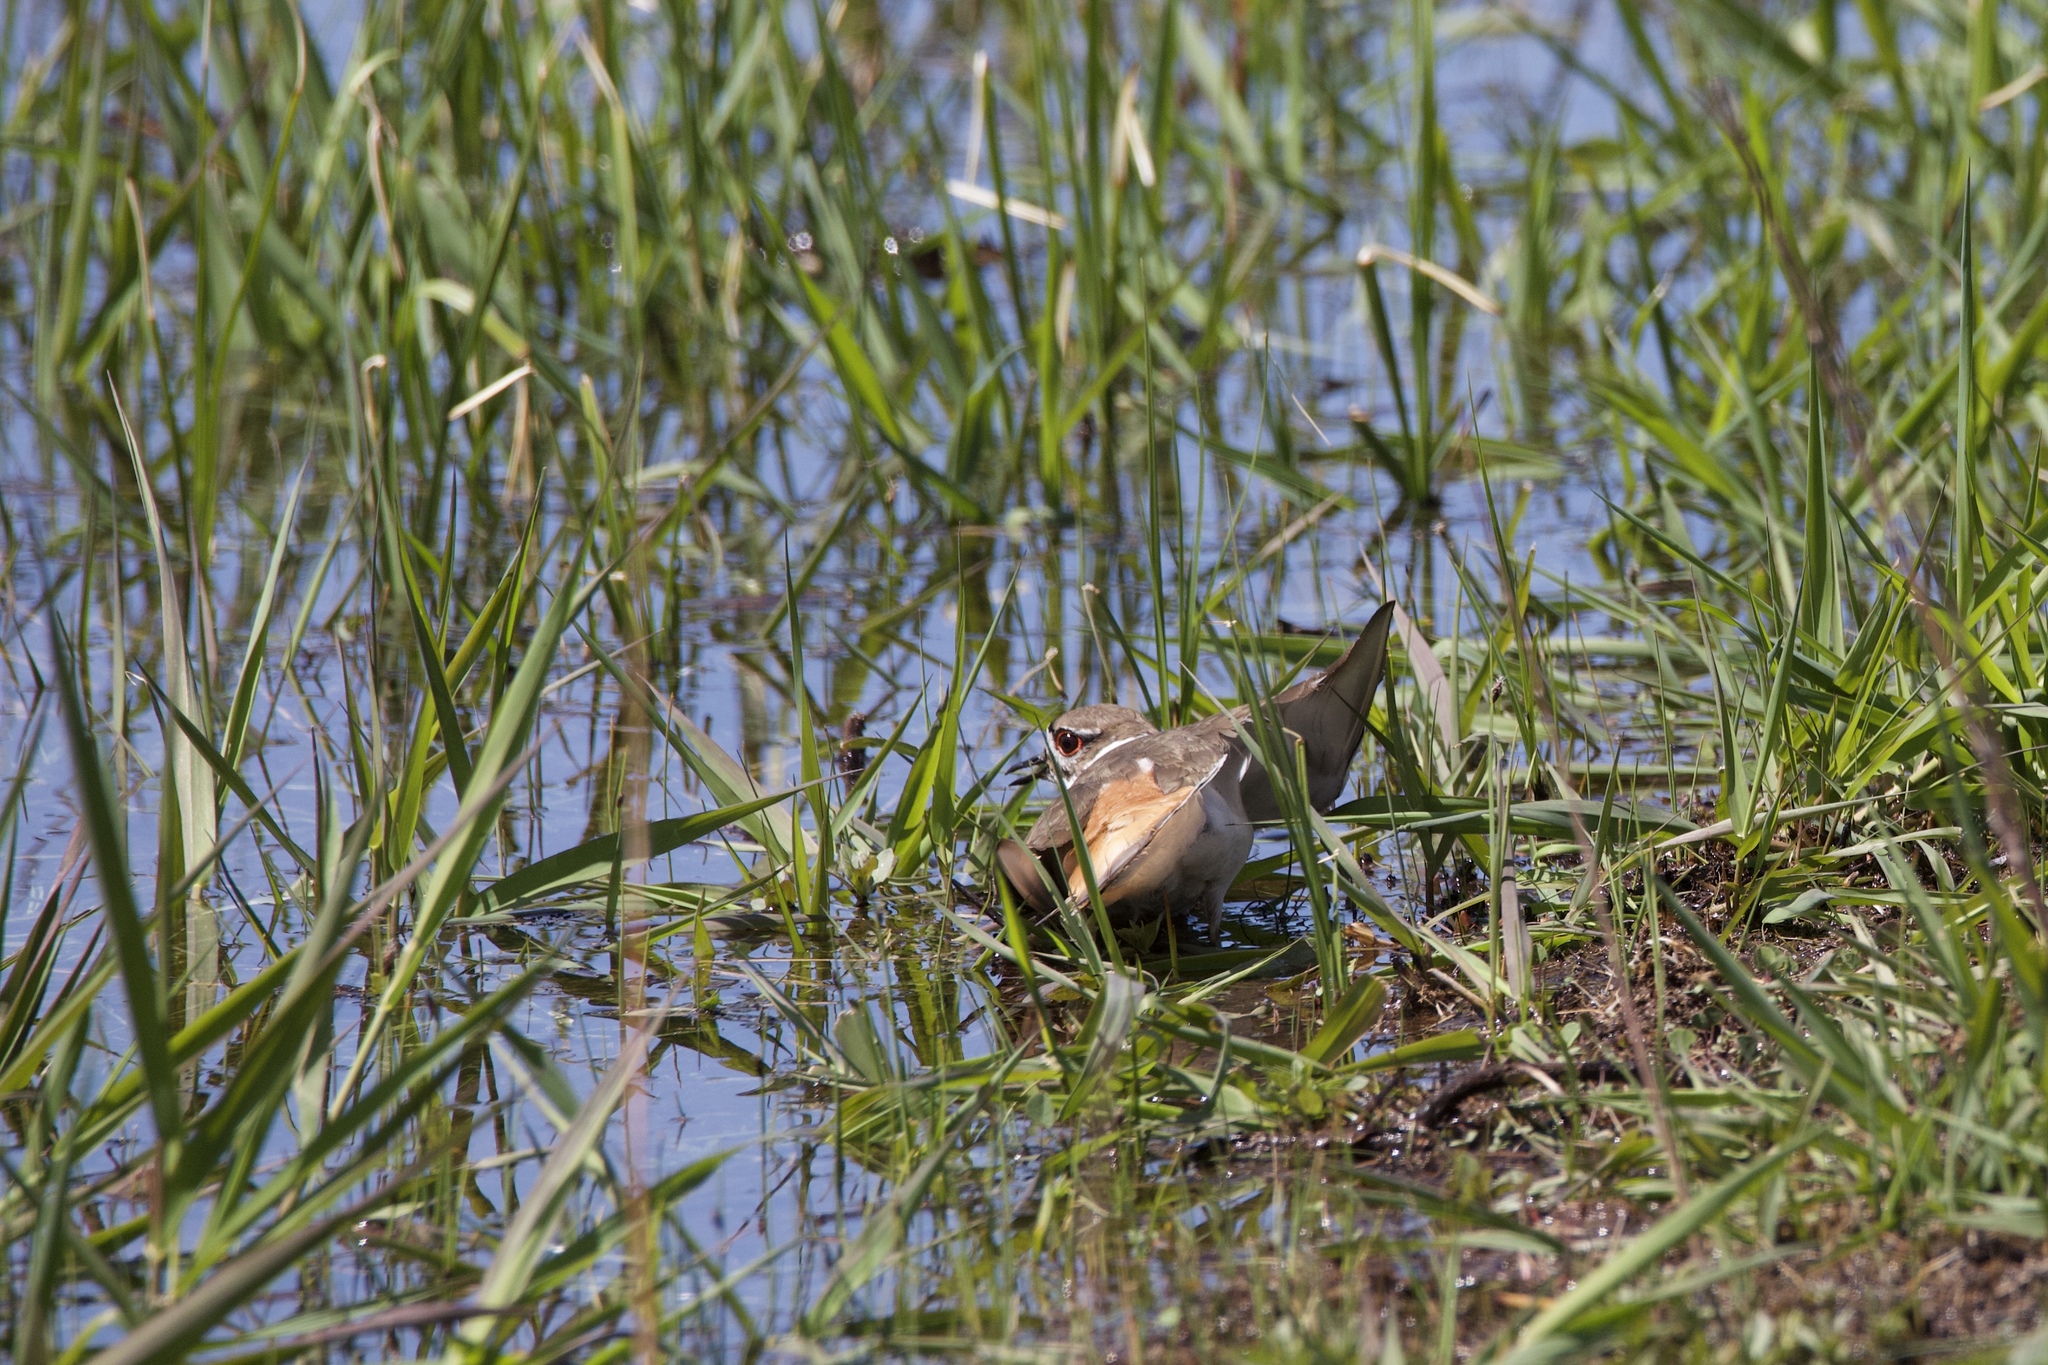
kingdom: Animalia
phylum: Chordata
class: Aves
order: Charadriiformes
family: Charadriidae
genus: Charadrius
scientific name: Charadrius vociferus
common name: Killdeer
